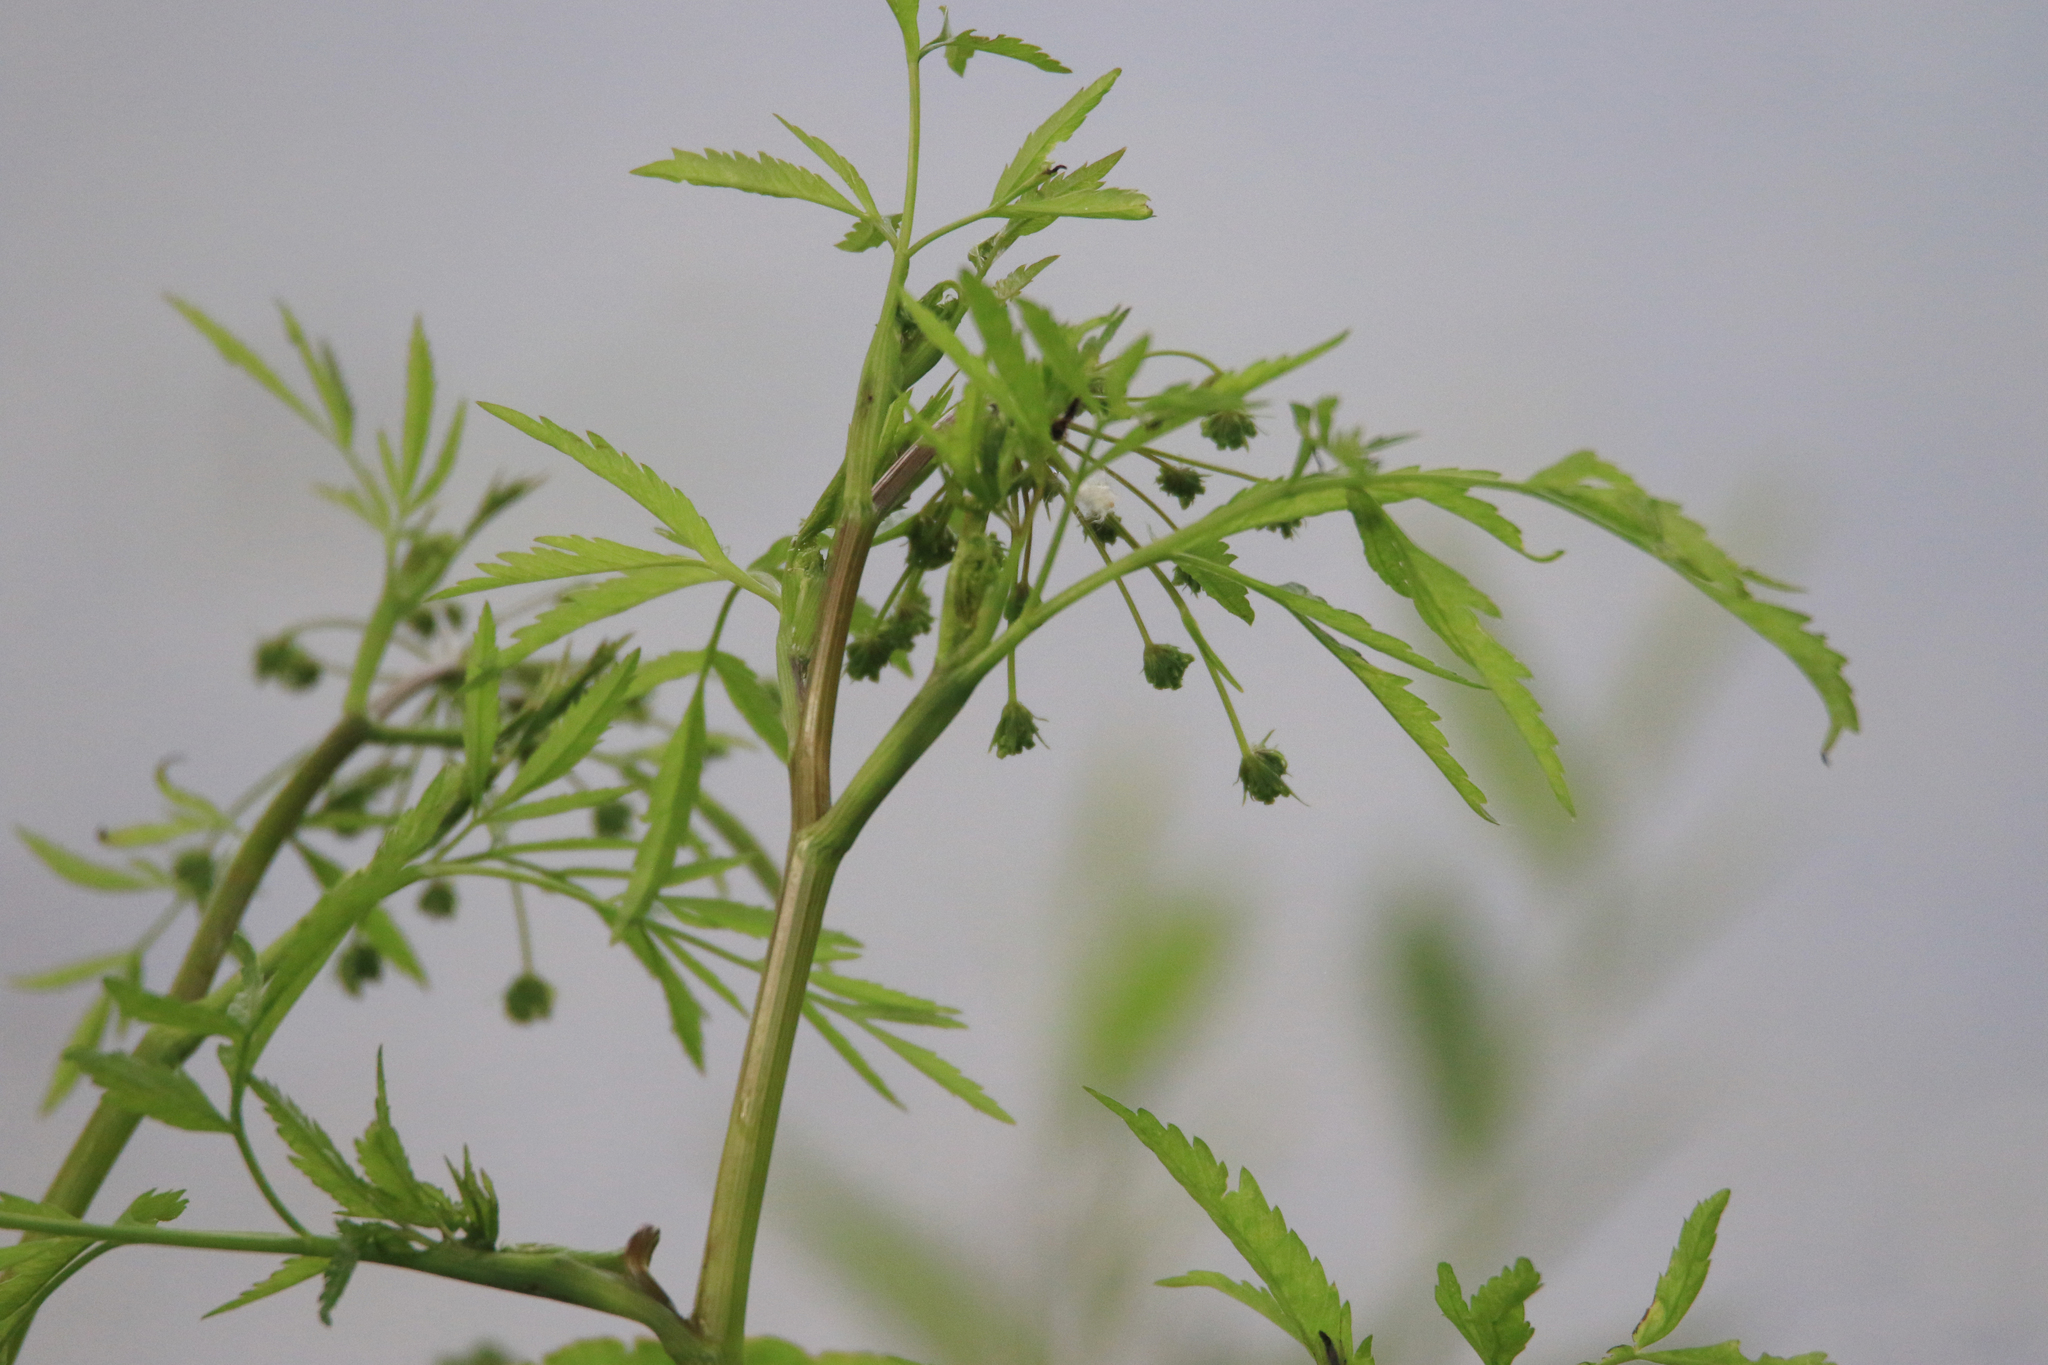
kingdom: Plantae
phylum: Tracheophyta
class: Magnoliopsida
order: Apiales
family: Apiaceae
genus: Cicuta
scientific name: Cicuta virosa
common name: Cowbane
